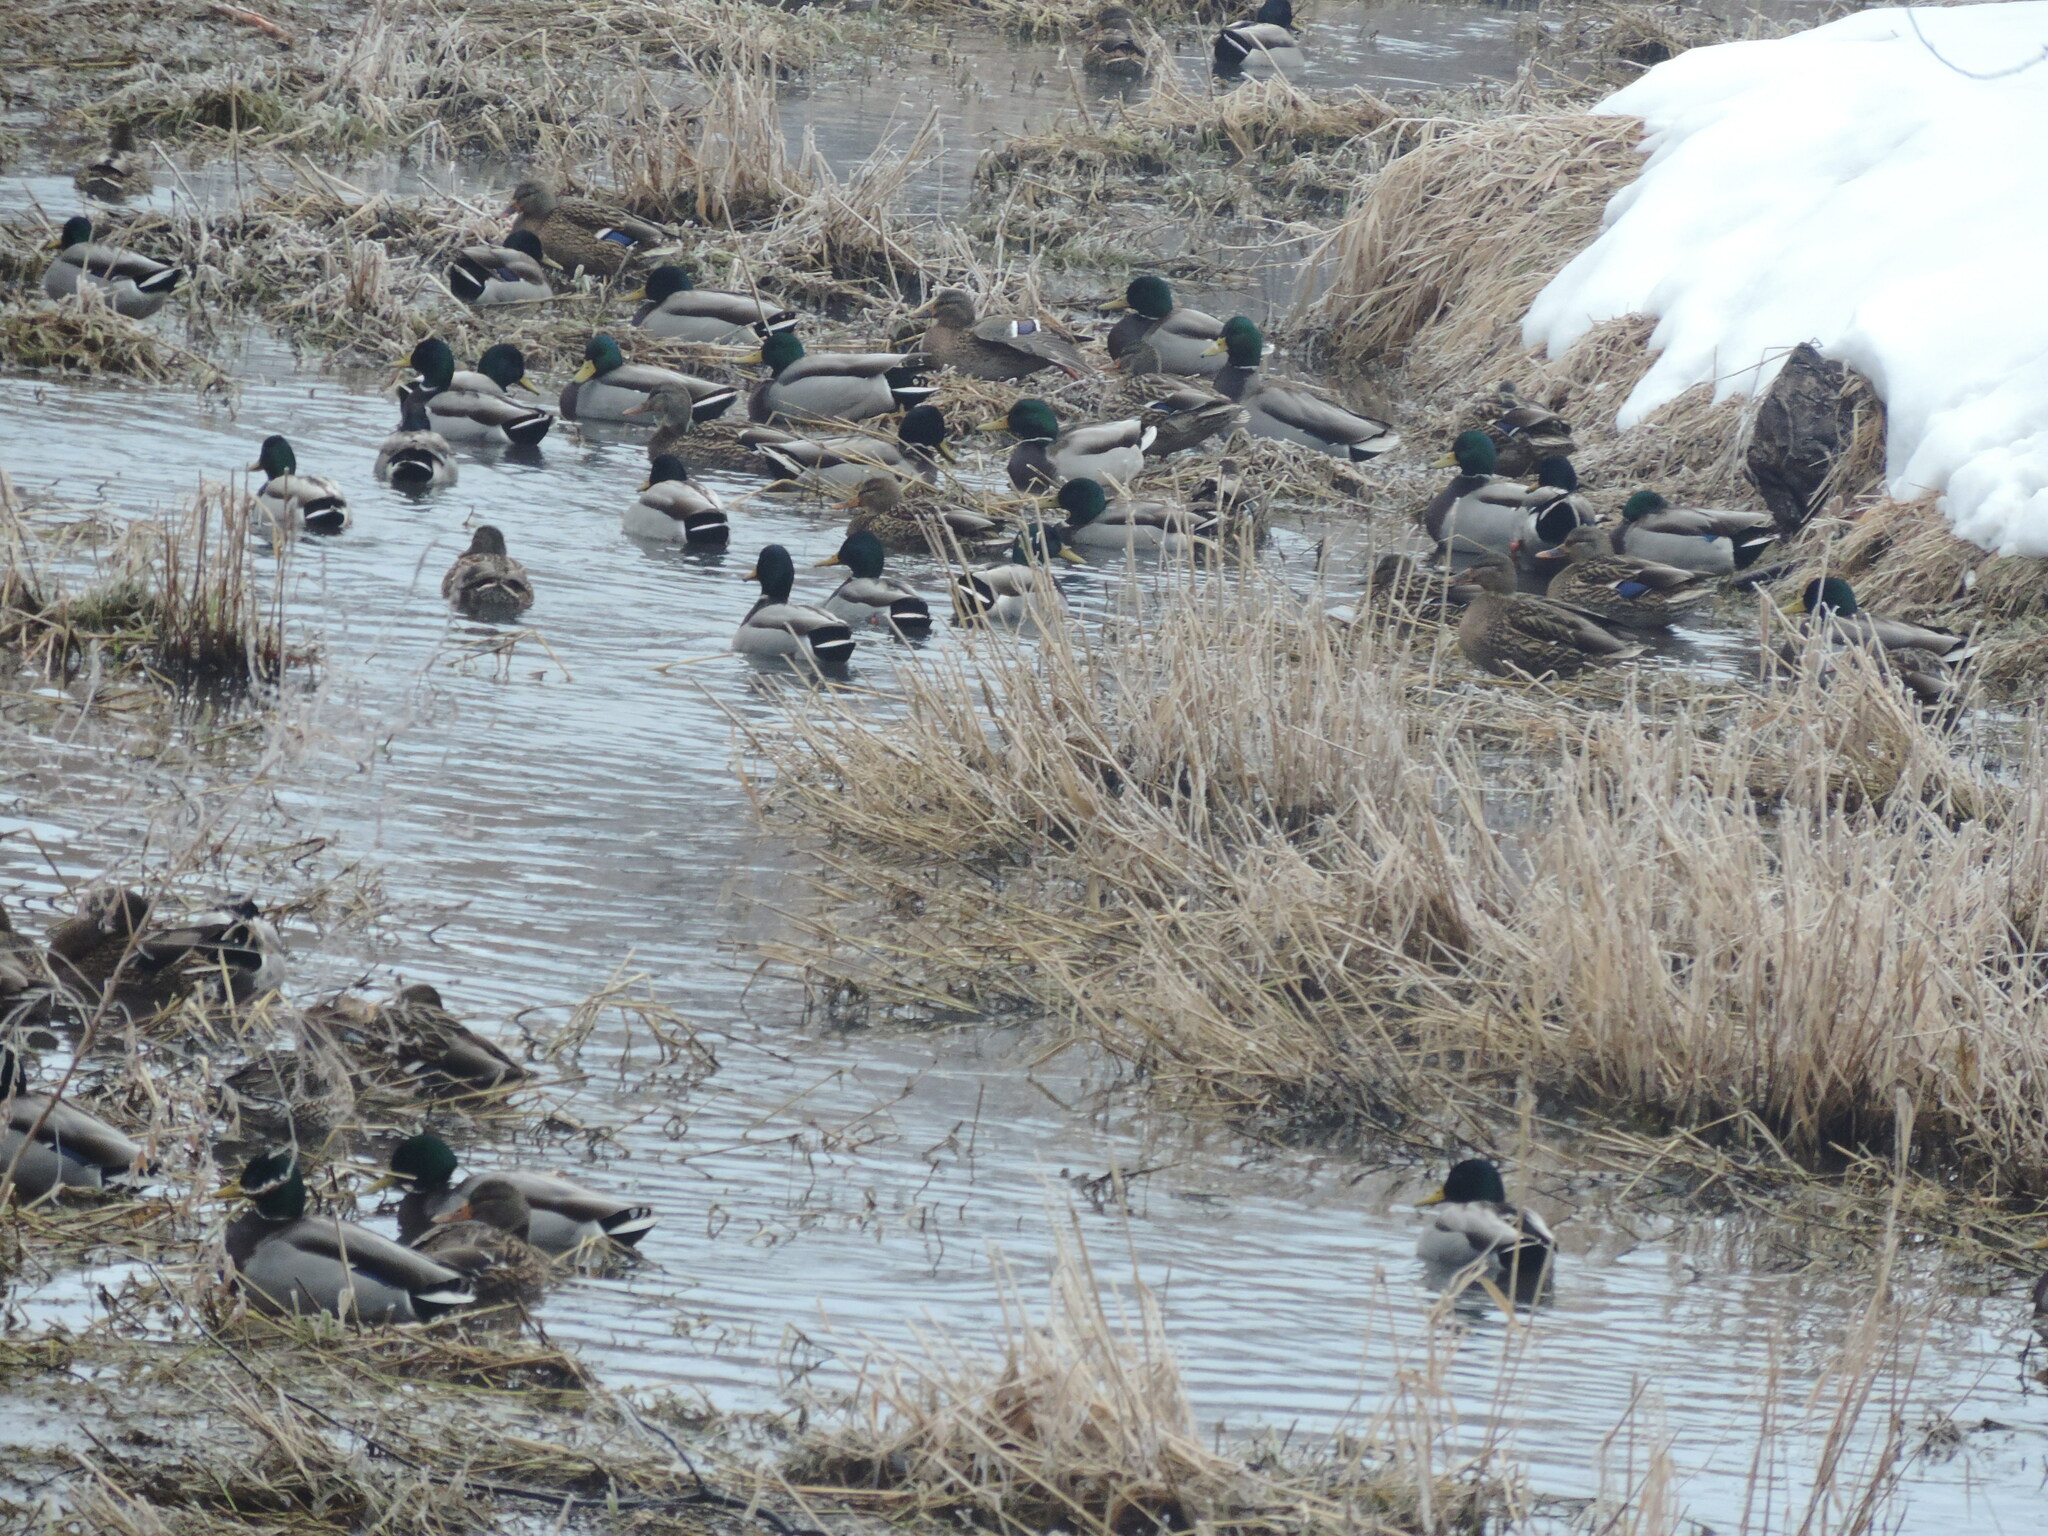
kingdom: Animalia
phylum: Chordata
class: Aves
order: Anseriformes
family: Anatidae
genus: Anas
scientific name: Anas platyrhynchos
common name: Mallard
